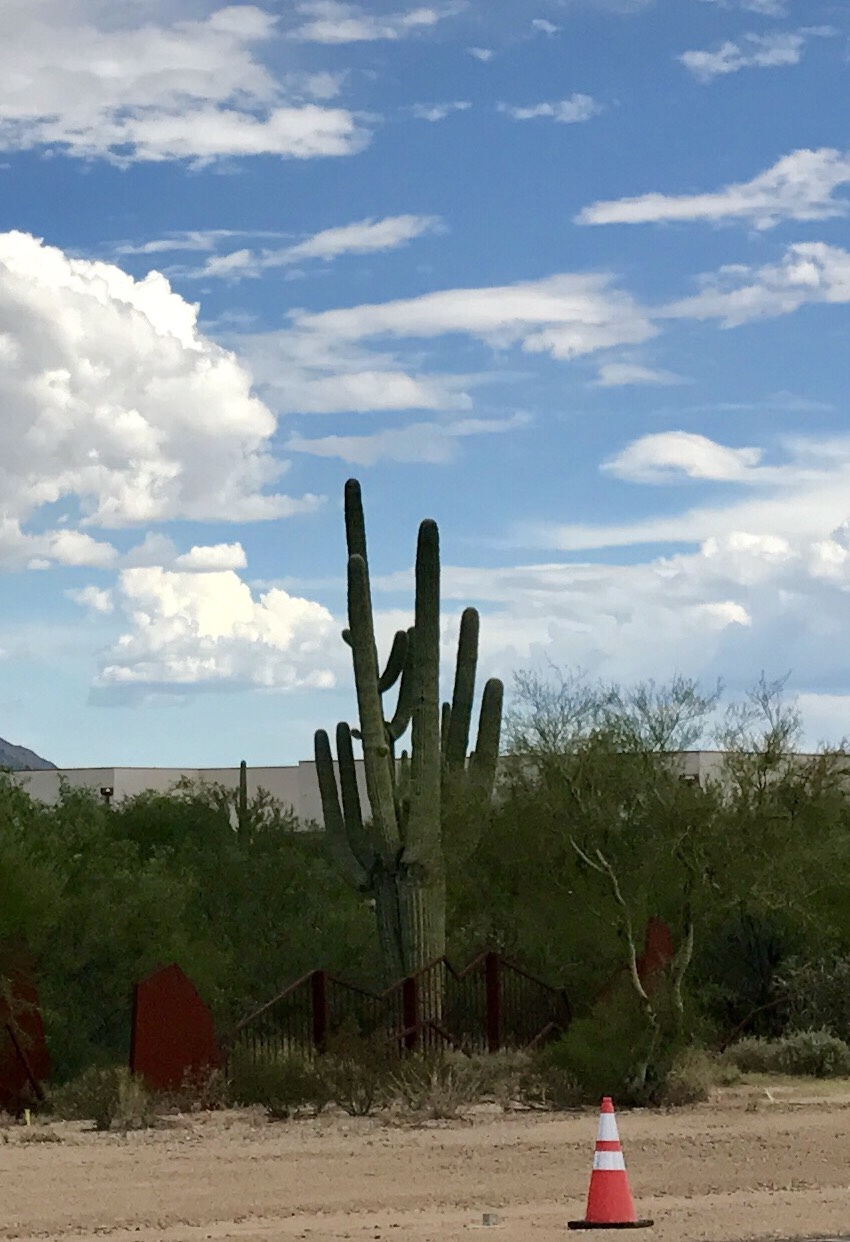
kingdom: Plantae
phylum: Tracheophyta
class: Magnoliopsida
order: Caryophyllales
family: Cactaceae
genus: Carnegiea
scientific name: Carnegiea gigantea
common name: Saguaro
